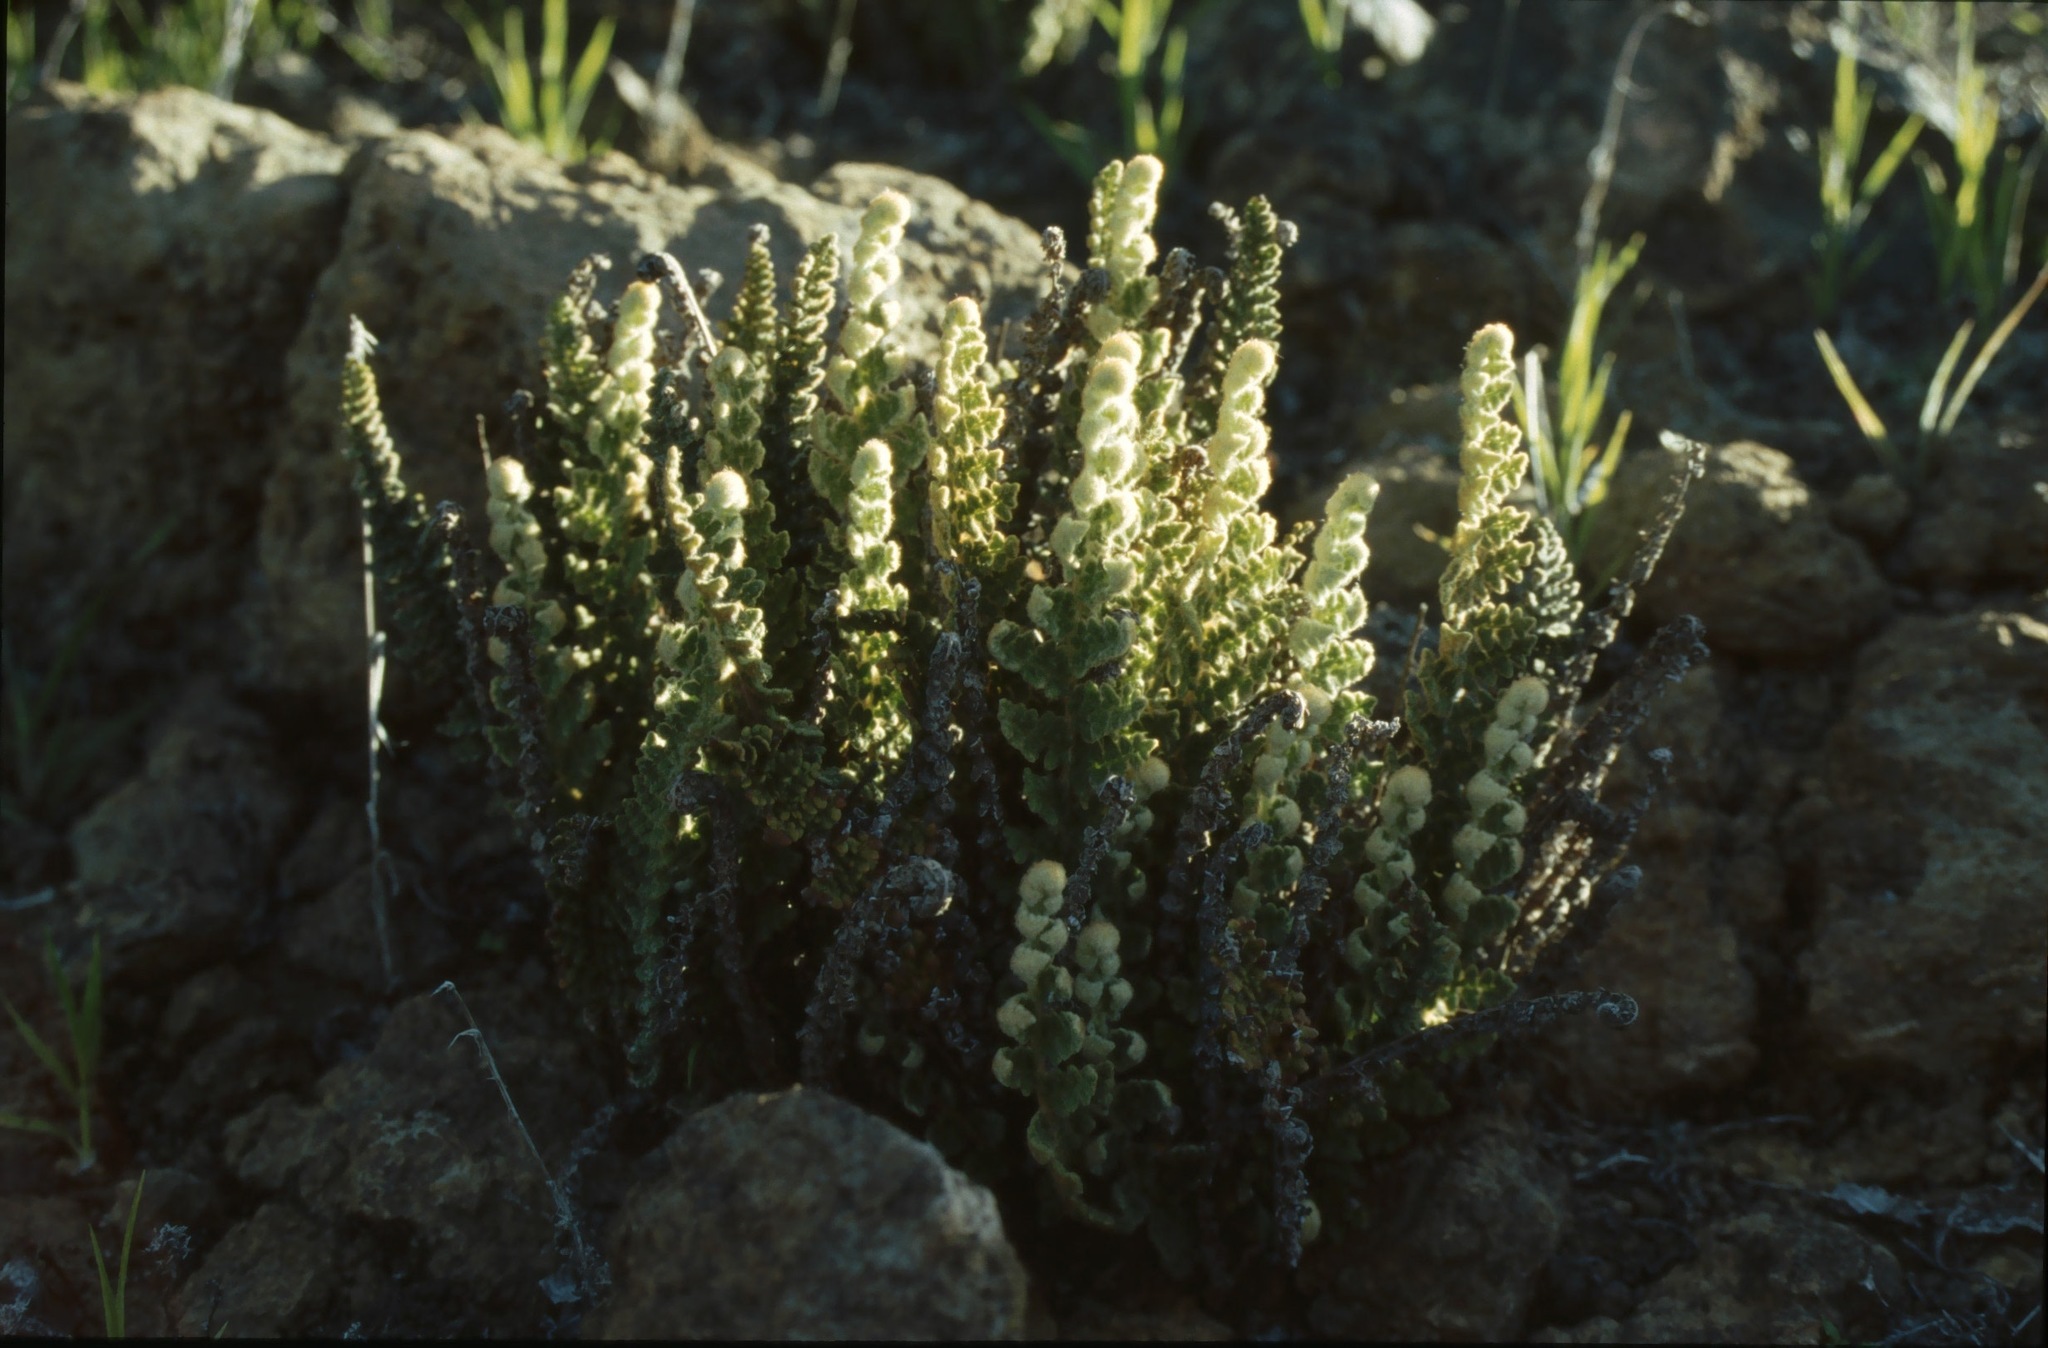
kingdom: Plantae
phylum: Tracheophyta
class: Polypodiopsida
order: Polypodiales
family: Pteridaceae
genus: Cosentinia
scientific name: Cosentinia vellea
